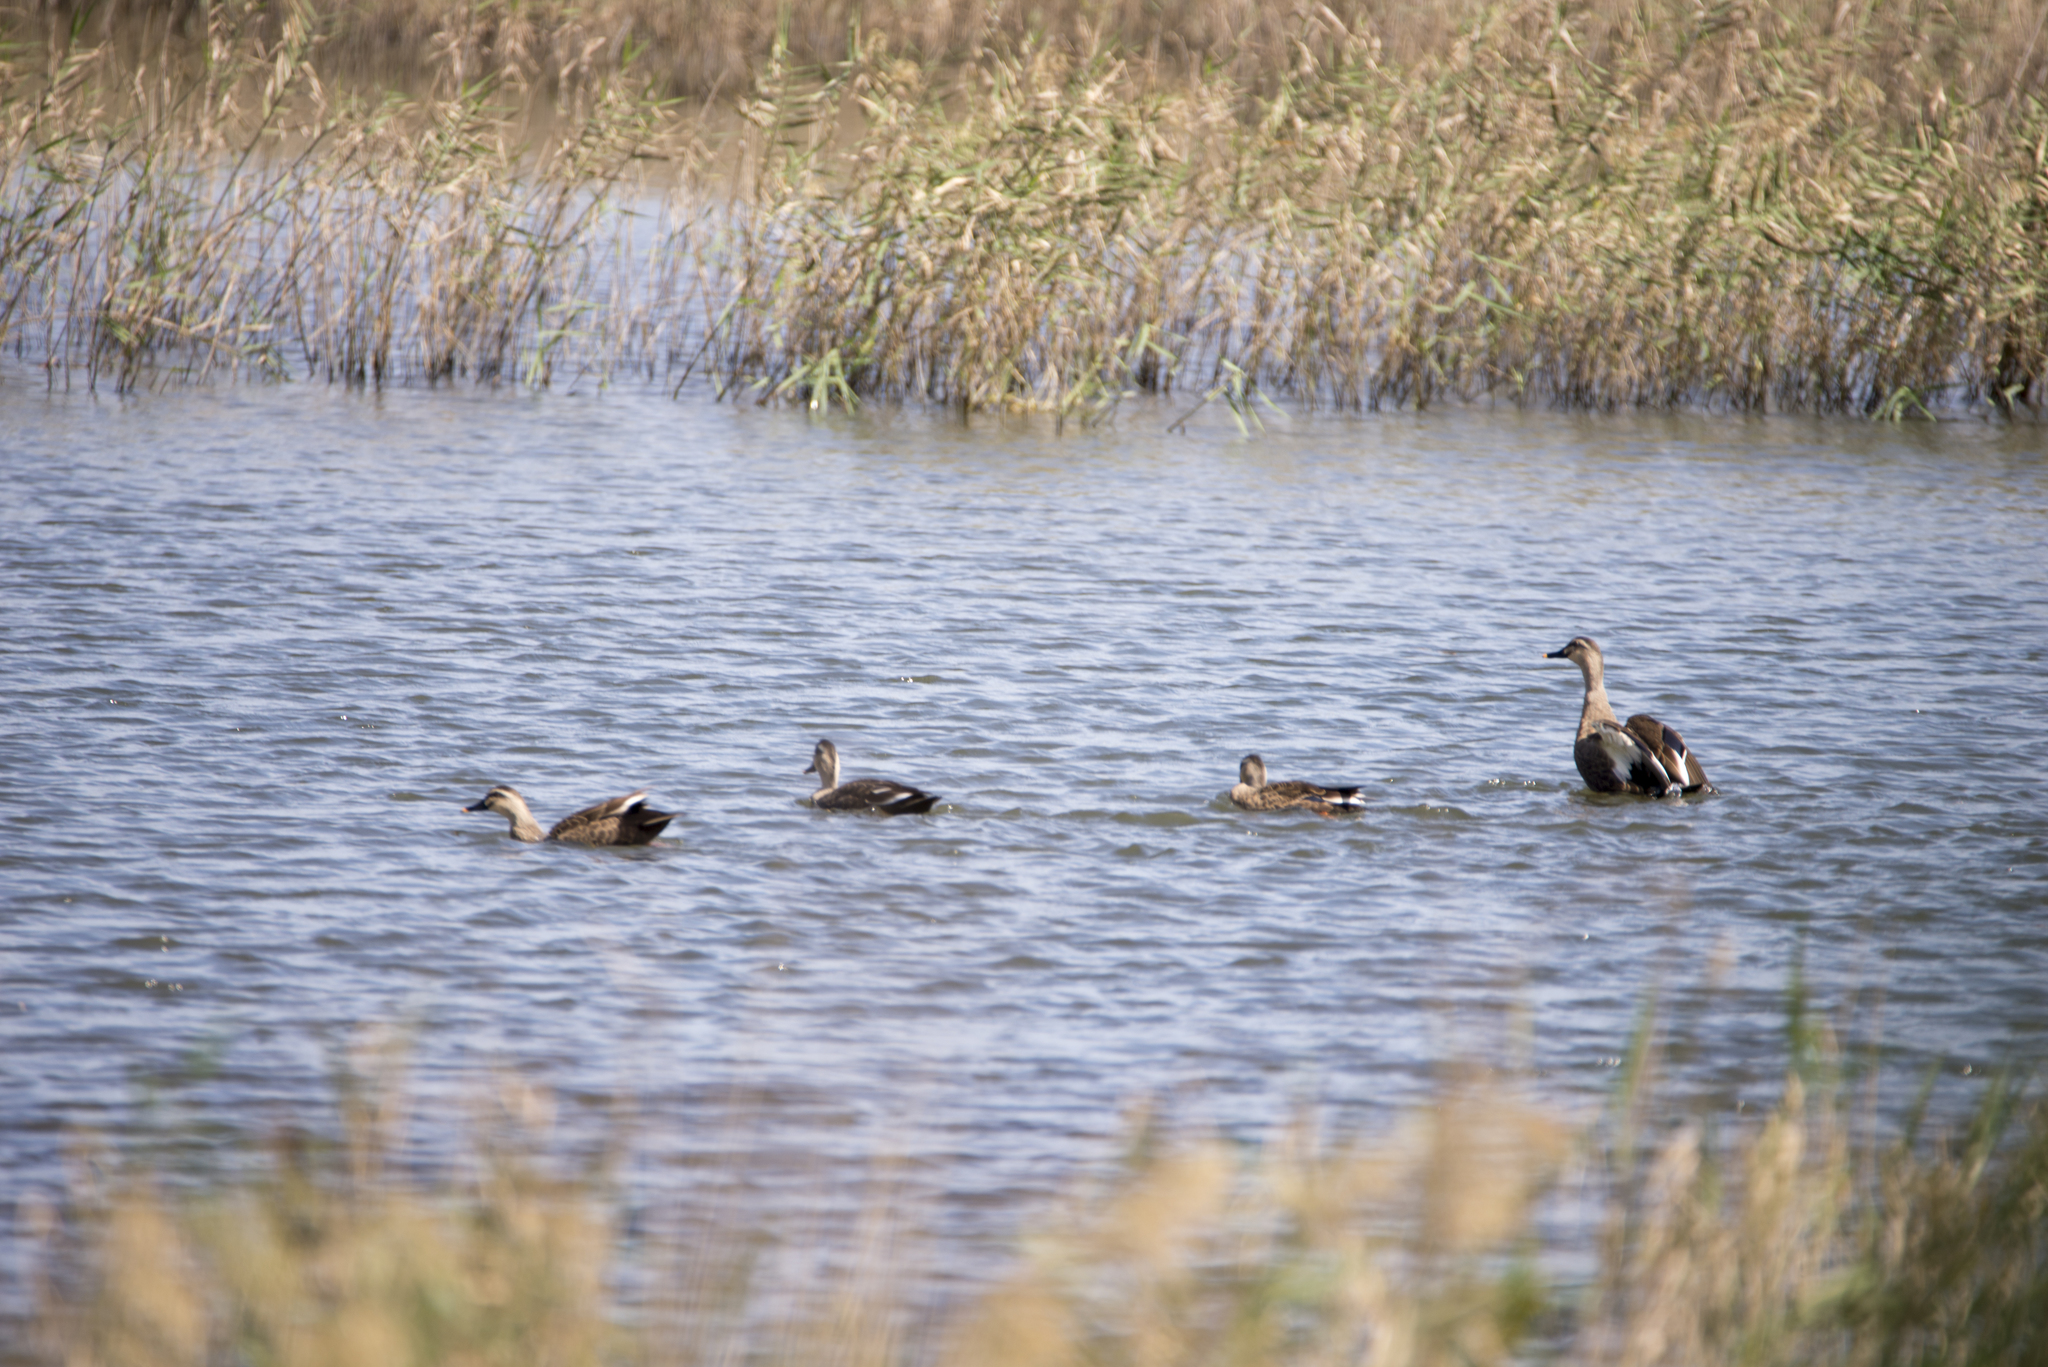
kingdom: Animalia
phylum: Chordata
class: Aves
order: Anseriformes
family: Anatidae
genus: Anas
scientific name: Anas zonorhyncha
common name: Eastern spot-billed duck
